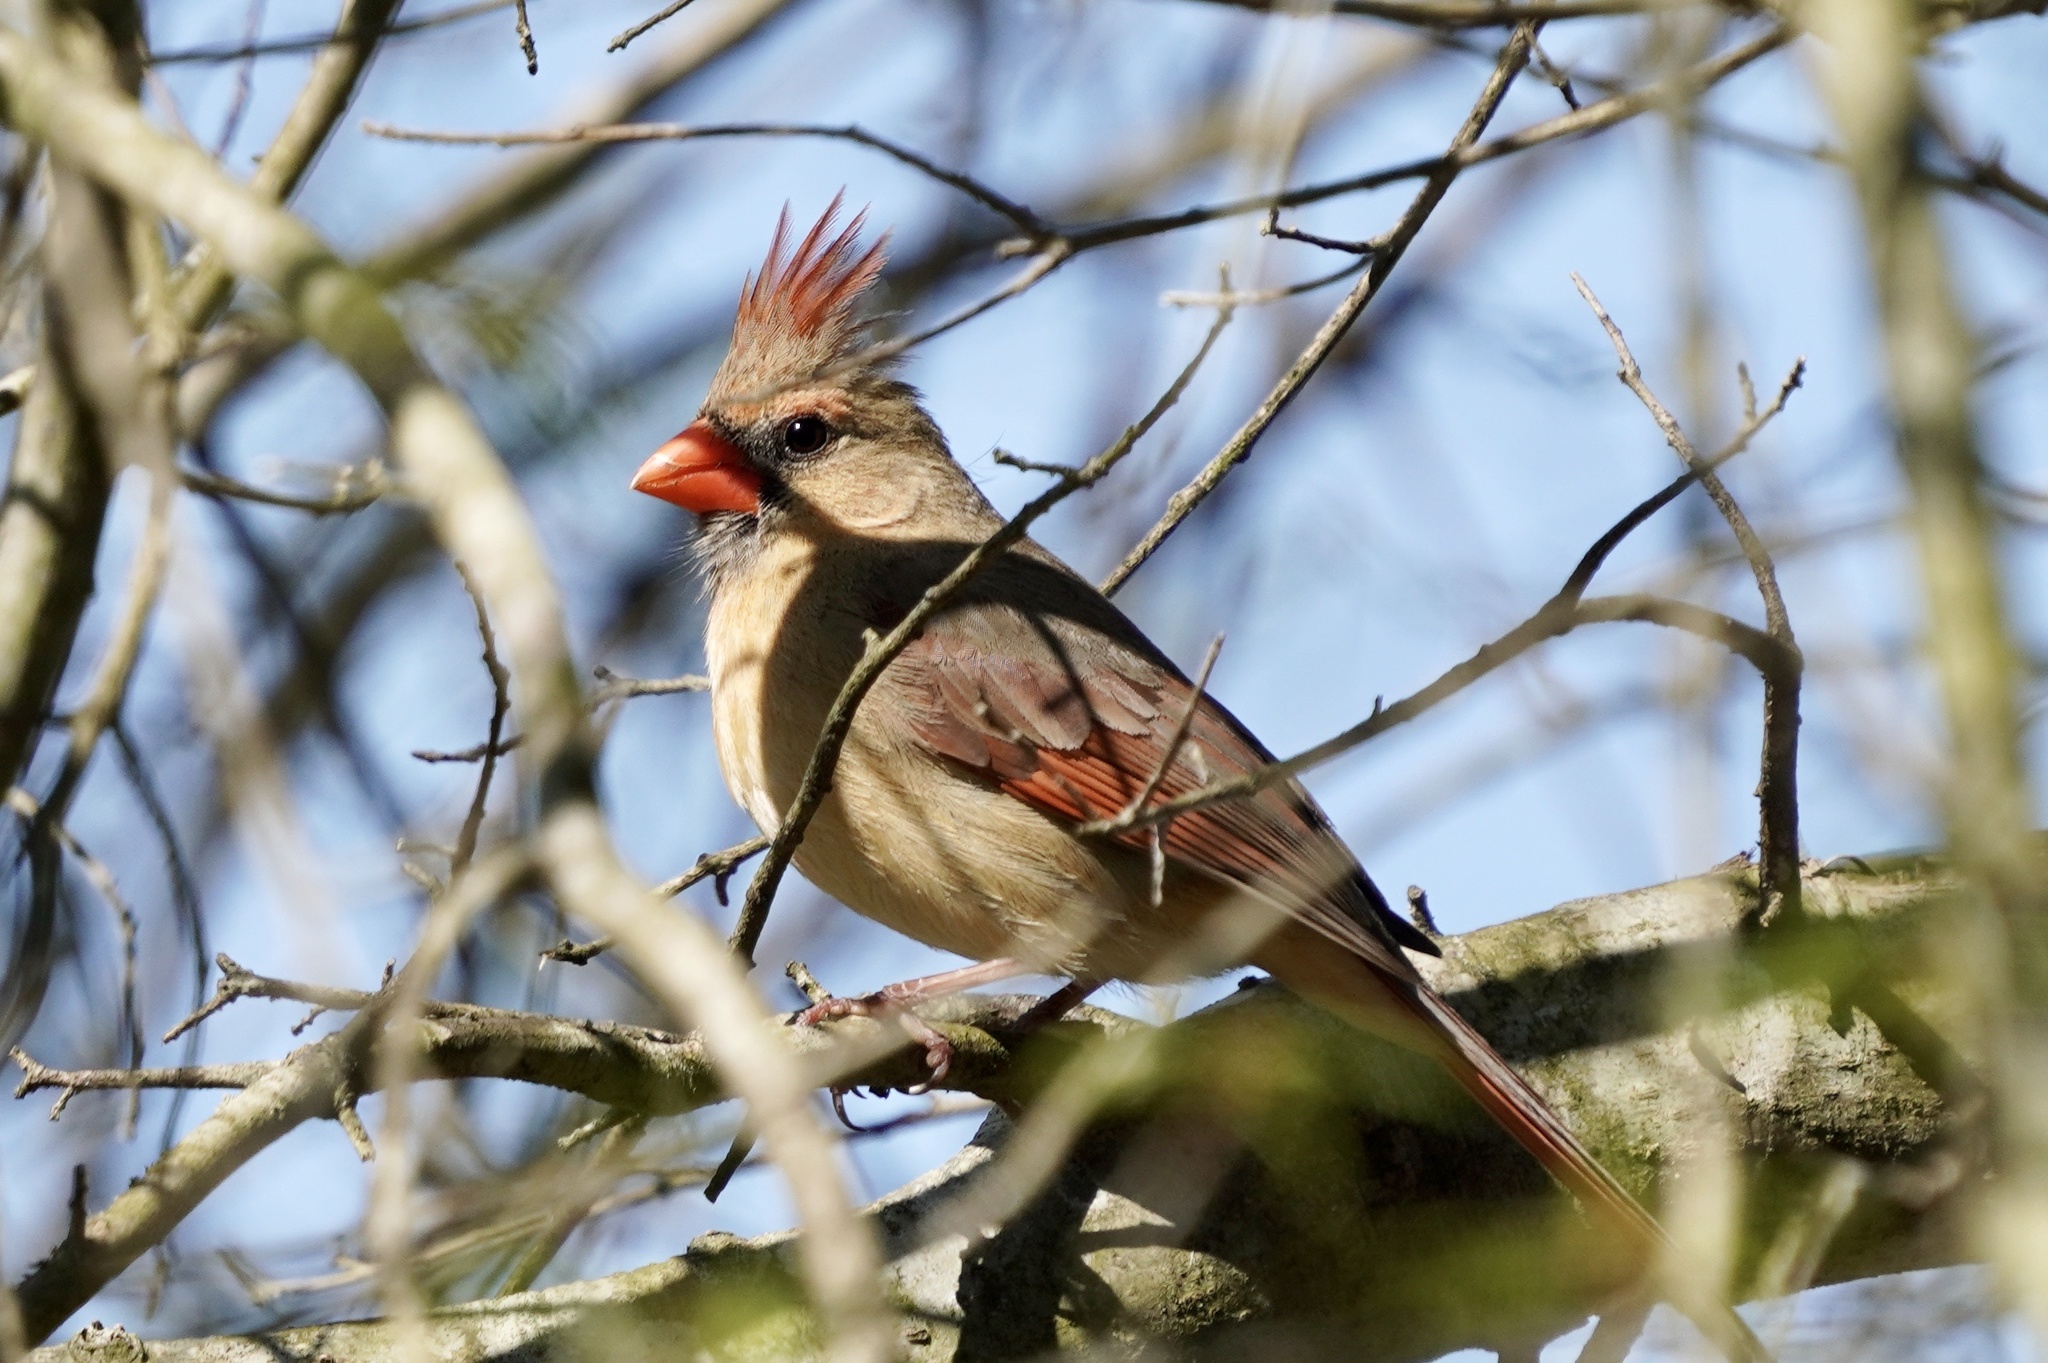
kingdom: Animalia
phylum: Chordata
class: Aves
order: Passeriformes
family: Cardinalidae
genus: Cardinalis
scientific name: Cardinalis cardinalis
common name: Northern cardinal
